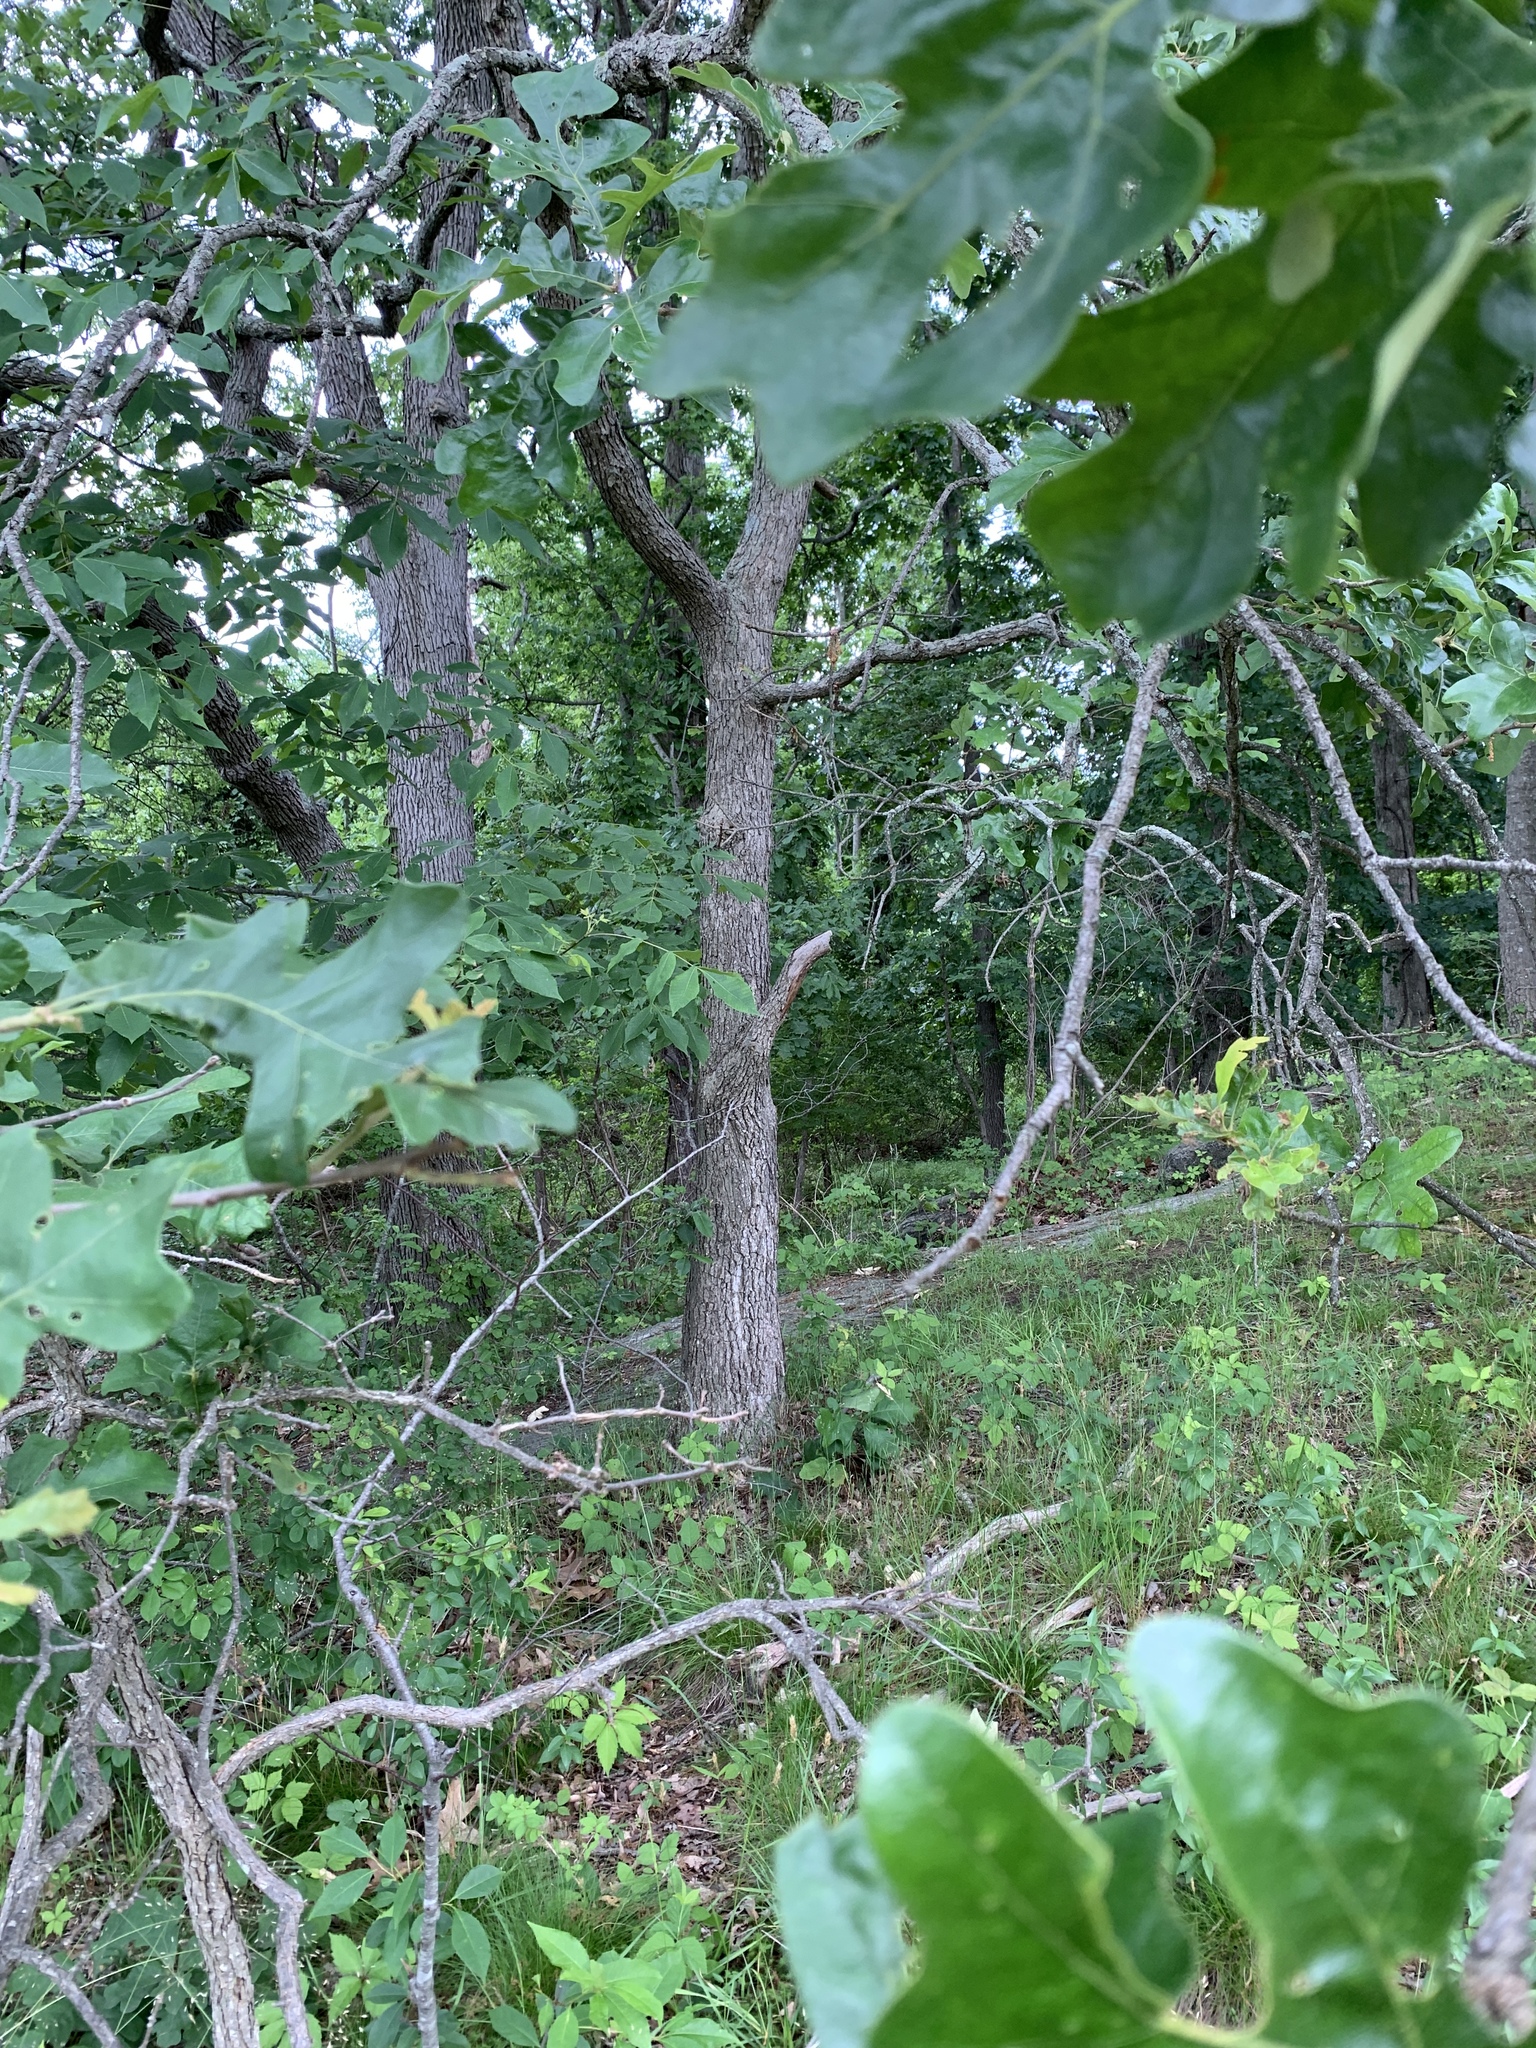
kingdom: Plantae
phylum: Tracheophyta
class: Magnoliopsida
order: Fagales
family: Fagaceae
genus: Quercus
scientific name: Quercus stellata
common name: Post oak
